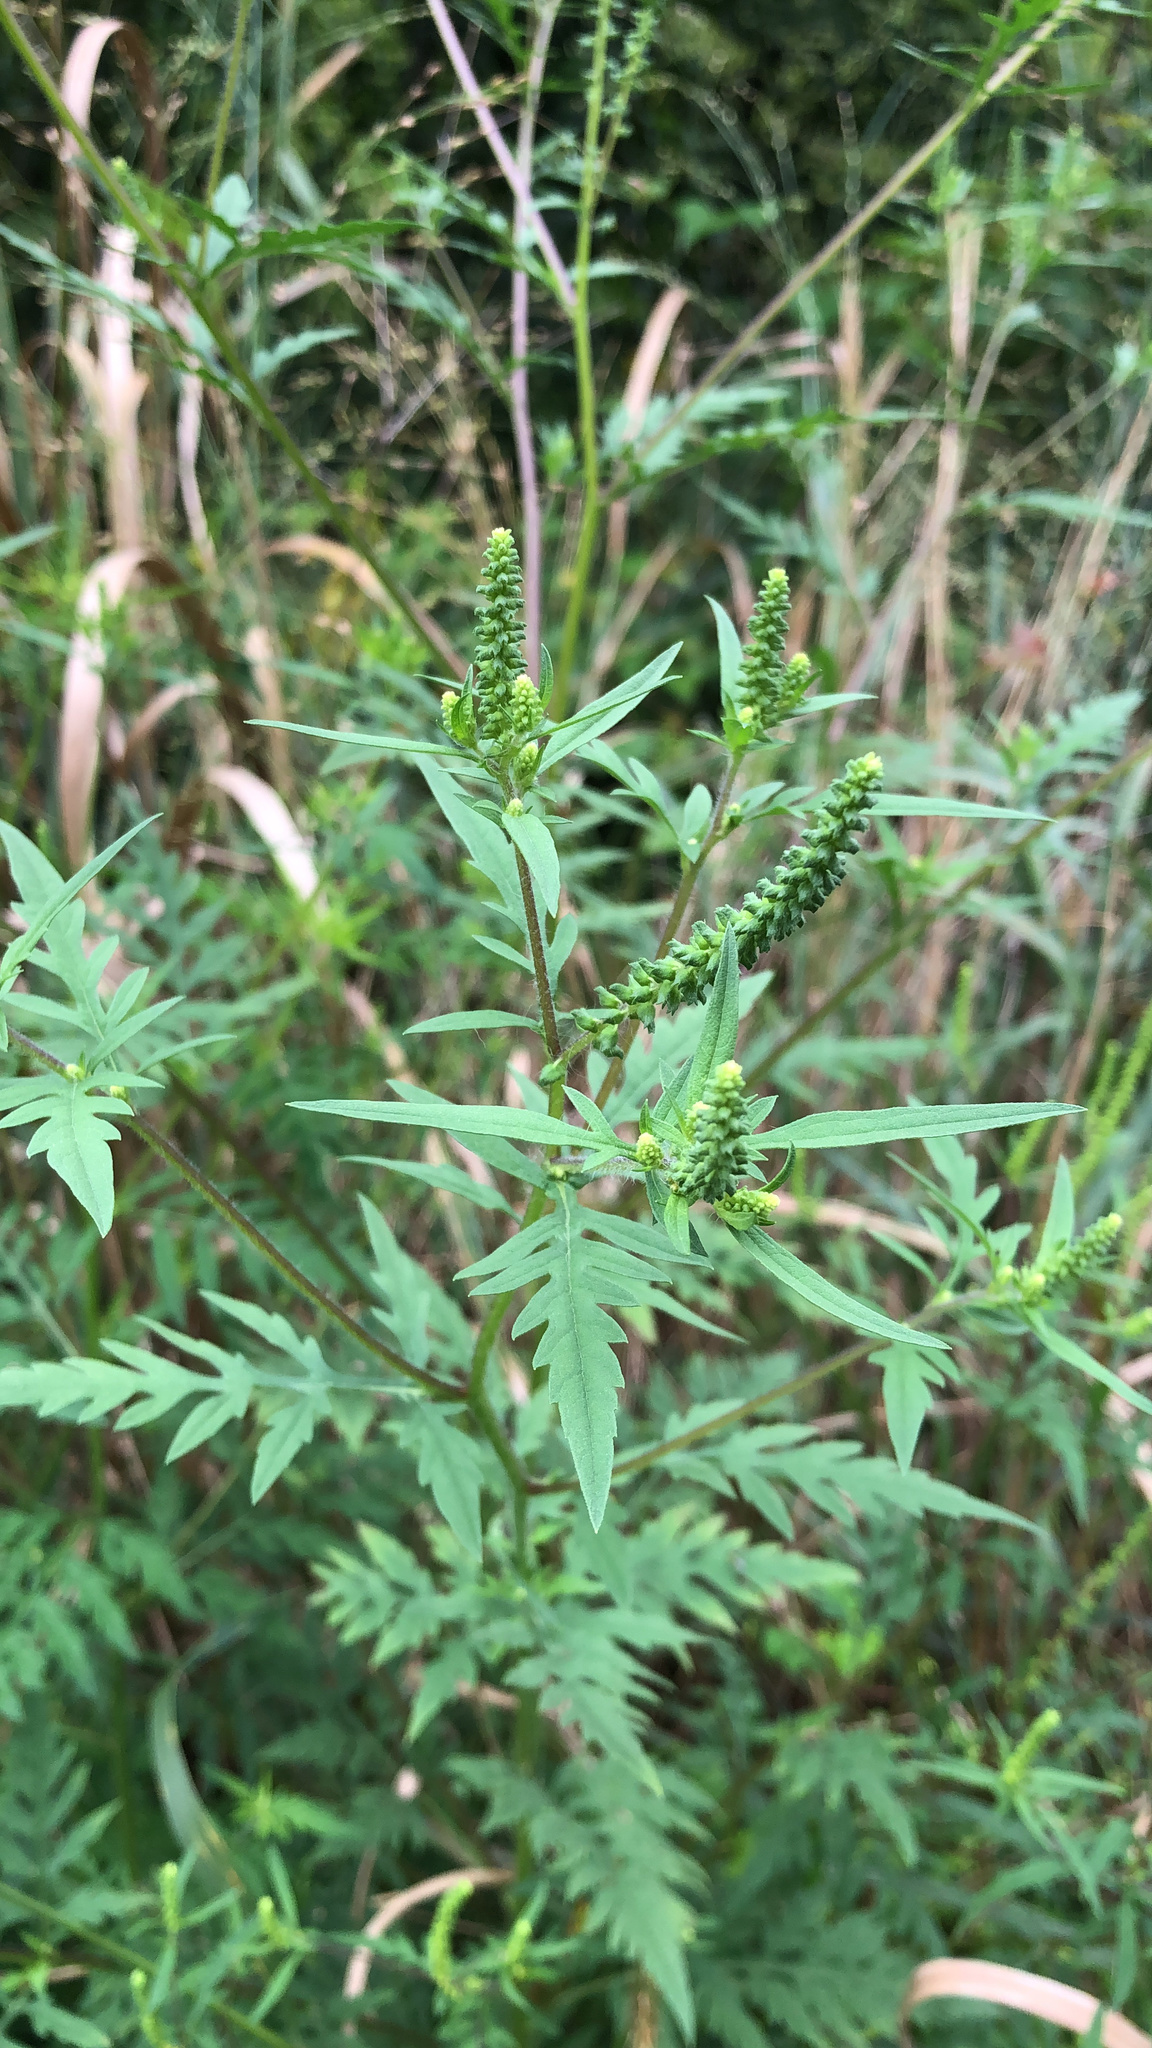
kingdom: Plantae
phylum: Tracheophyta
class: Magnoliopsida
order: Asterales
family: Asteraceae
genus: Ambrosia
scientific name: Ambrosia artemisiifolia
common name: Annual ragweed
